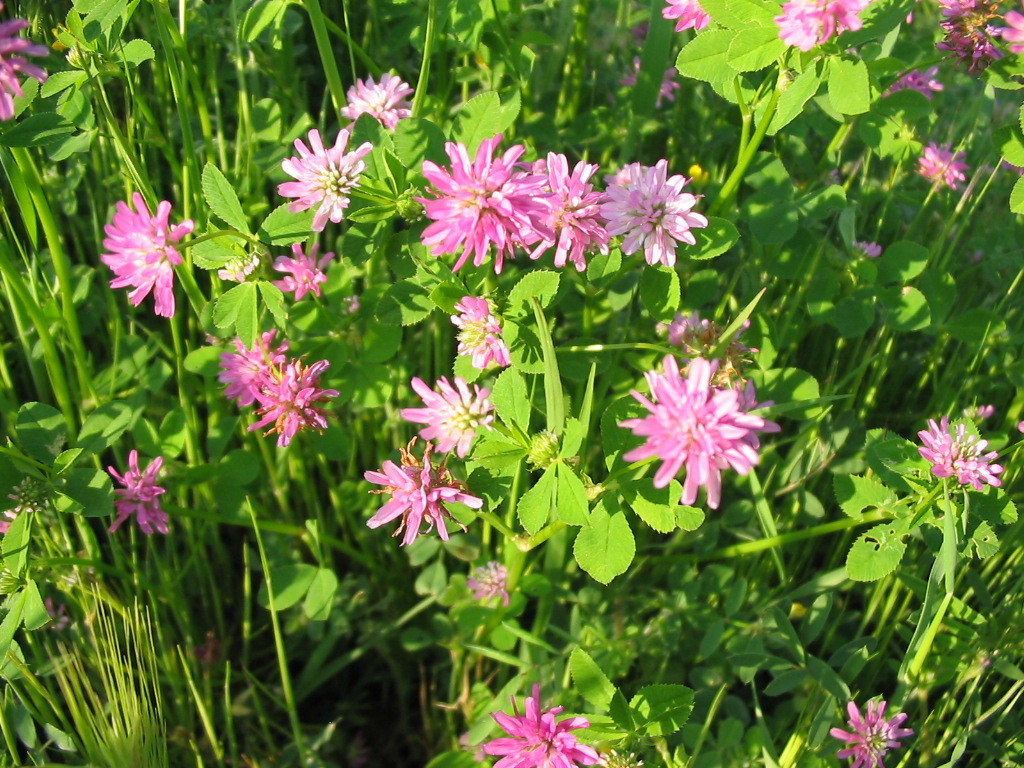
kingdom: Plantae
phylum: Tracheophyta
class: Magnoliopsida
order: Fabales
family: Fabaceae
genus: Trifolium
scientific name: Trifolium resupinatum
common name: Reversed clover
